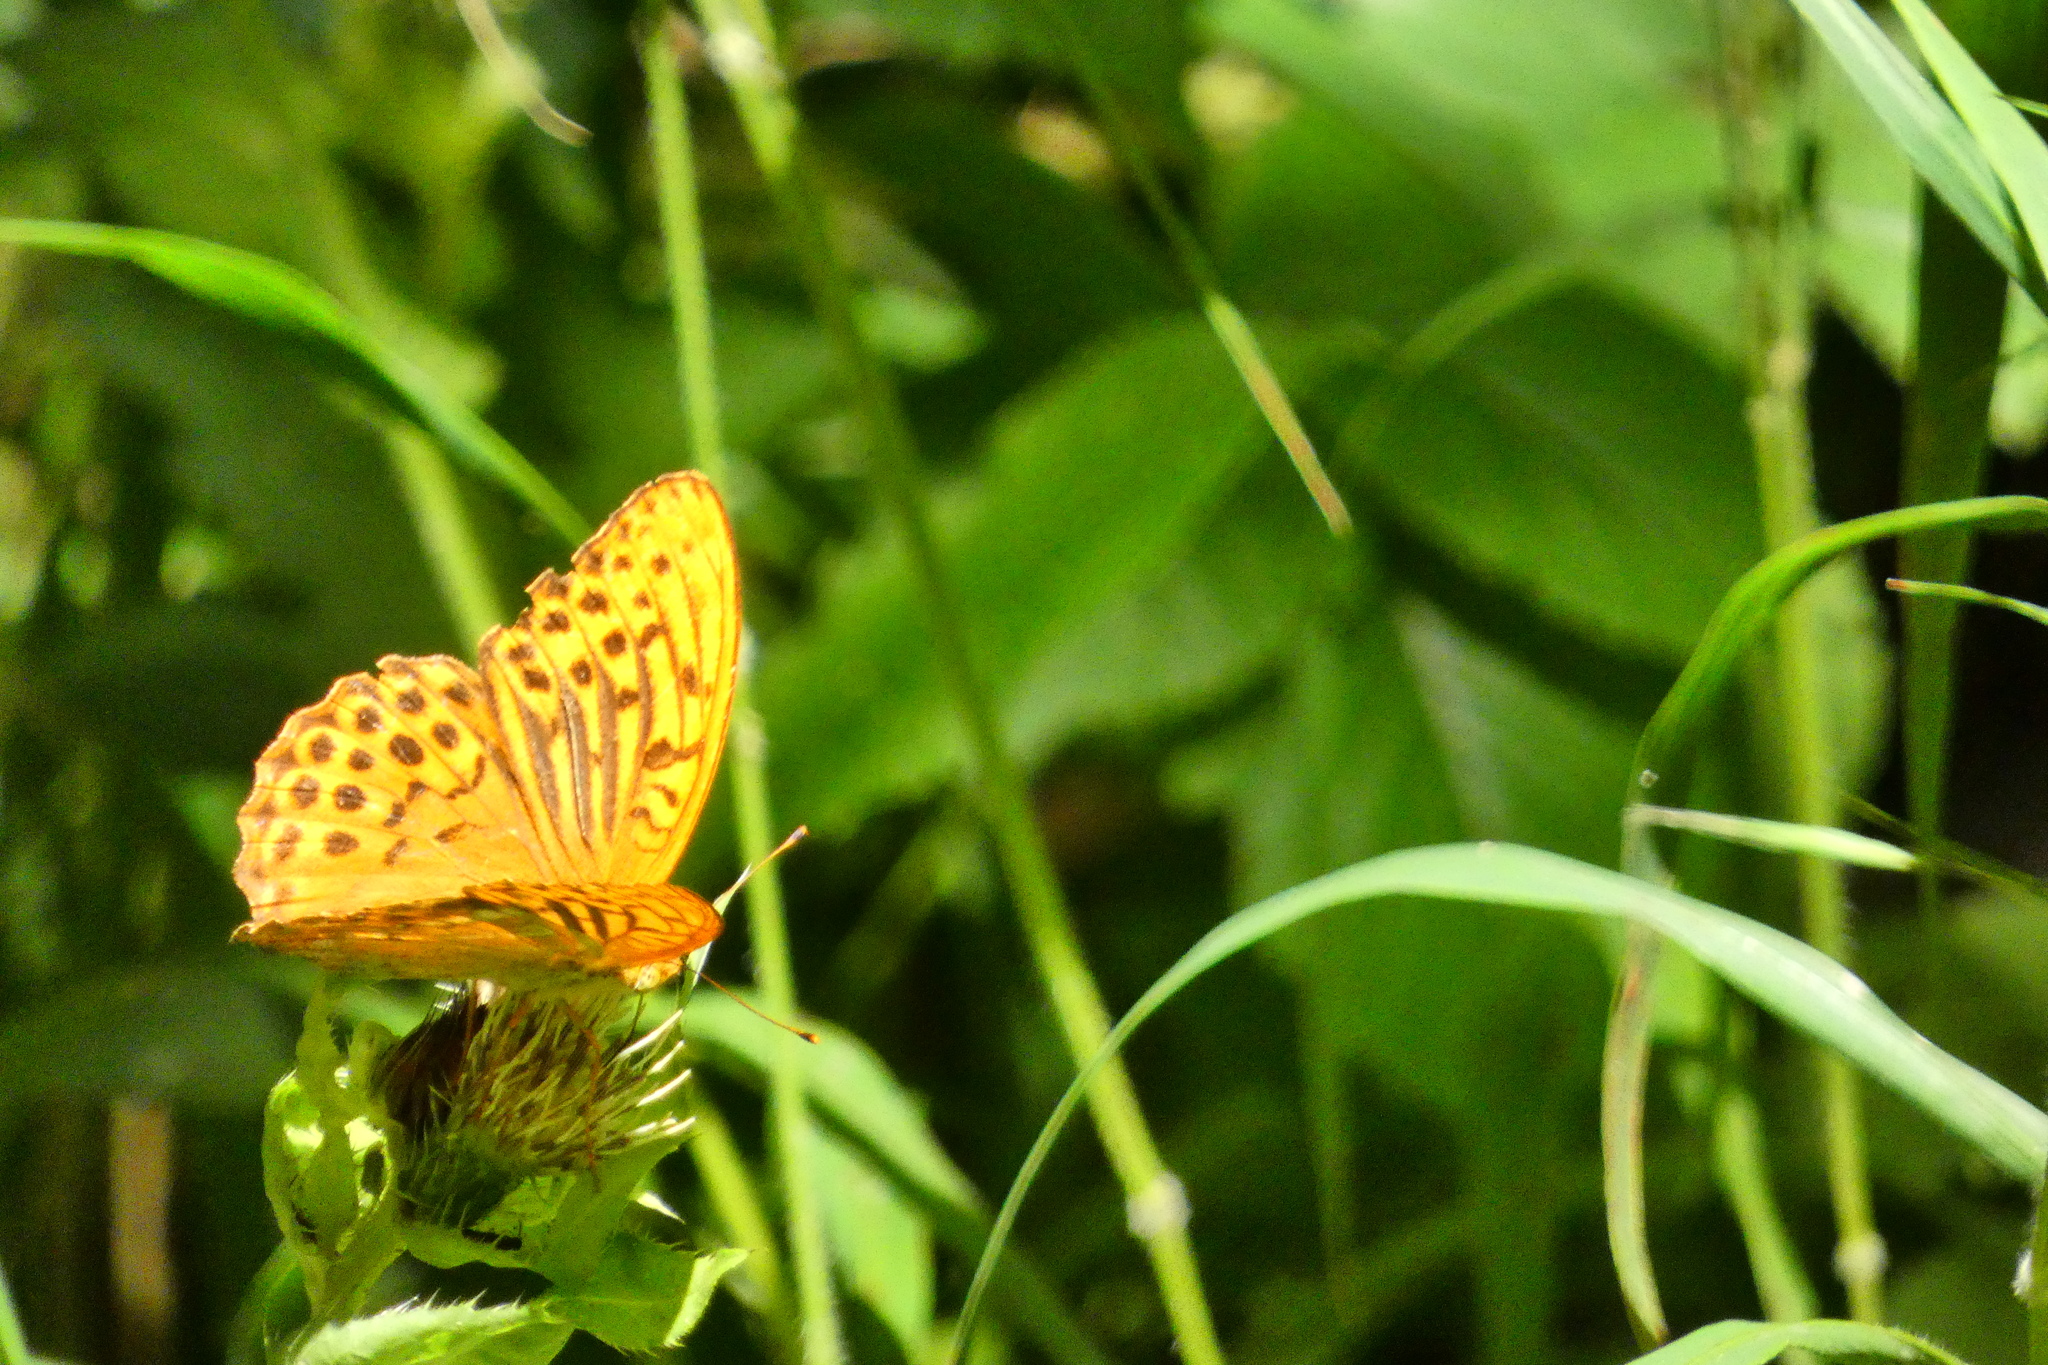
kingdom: Animalia
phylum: Arthropoda
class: Insecta
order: Lepidoptera
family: Nymphalidae
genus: Argynnis
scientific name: Argynnis paphia
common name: Silver-washed fritillary
